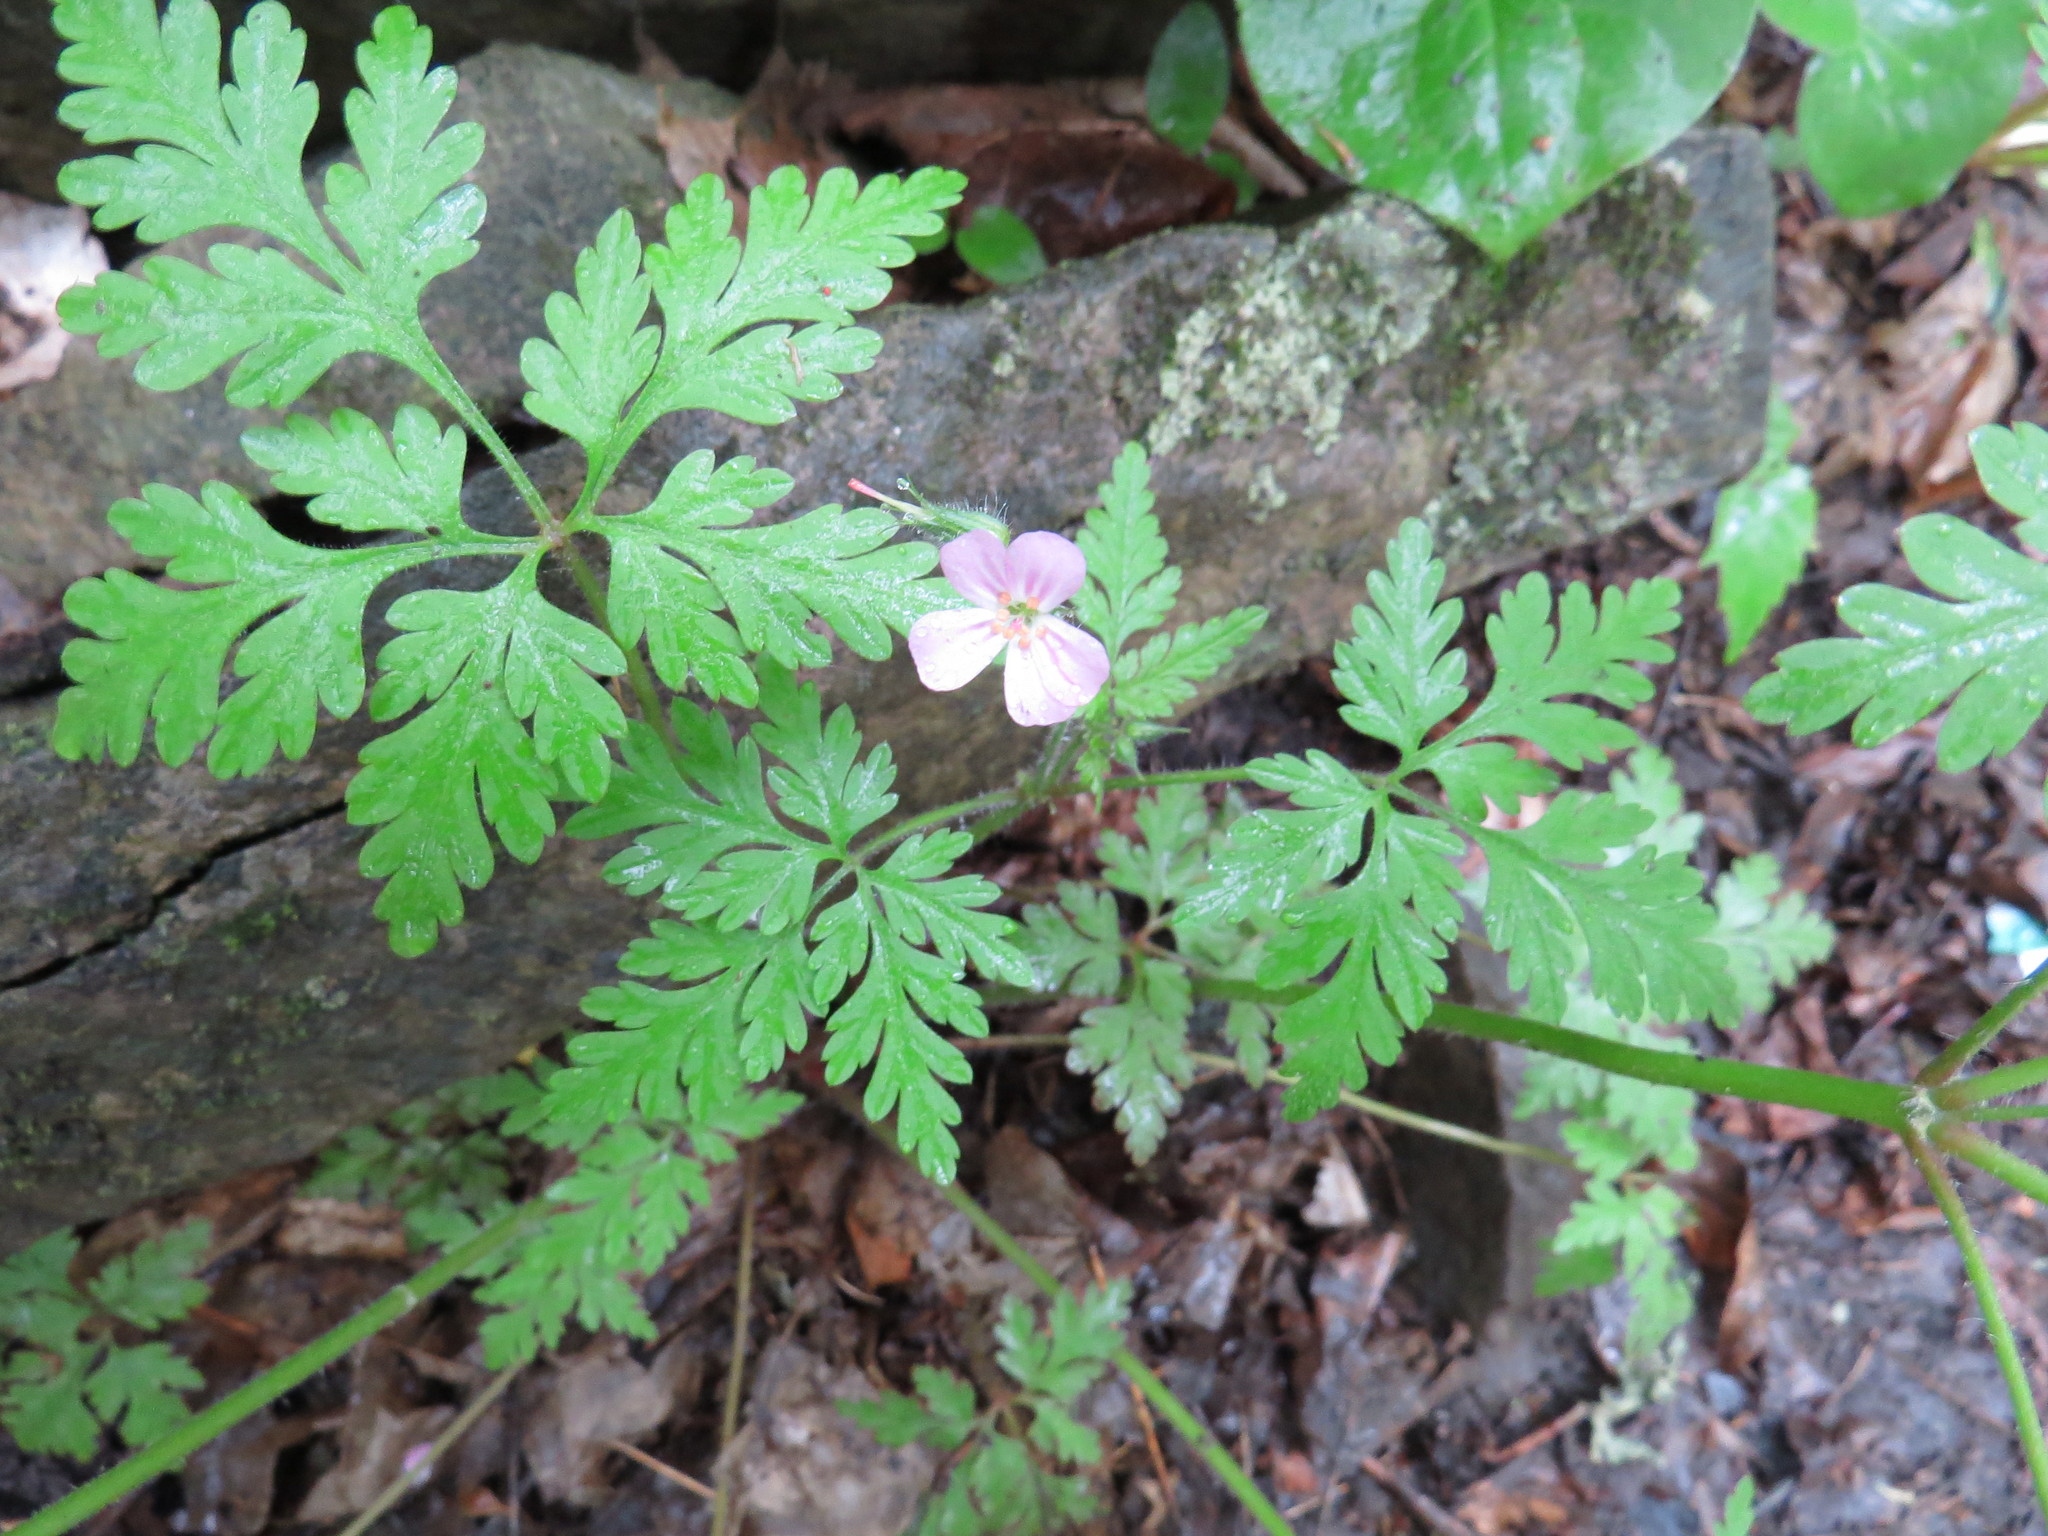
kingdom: Plantae
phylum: Tracheophyta
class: Magnoliopsida
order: Geraniales
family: Geraniaceae
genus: Geranium
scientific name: Geranium robertianum
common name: Herb-robert
